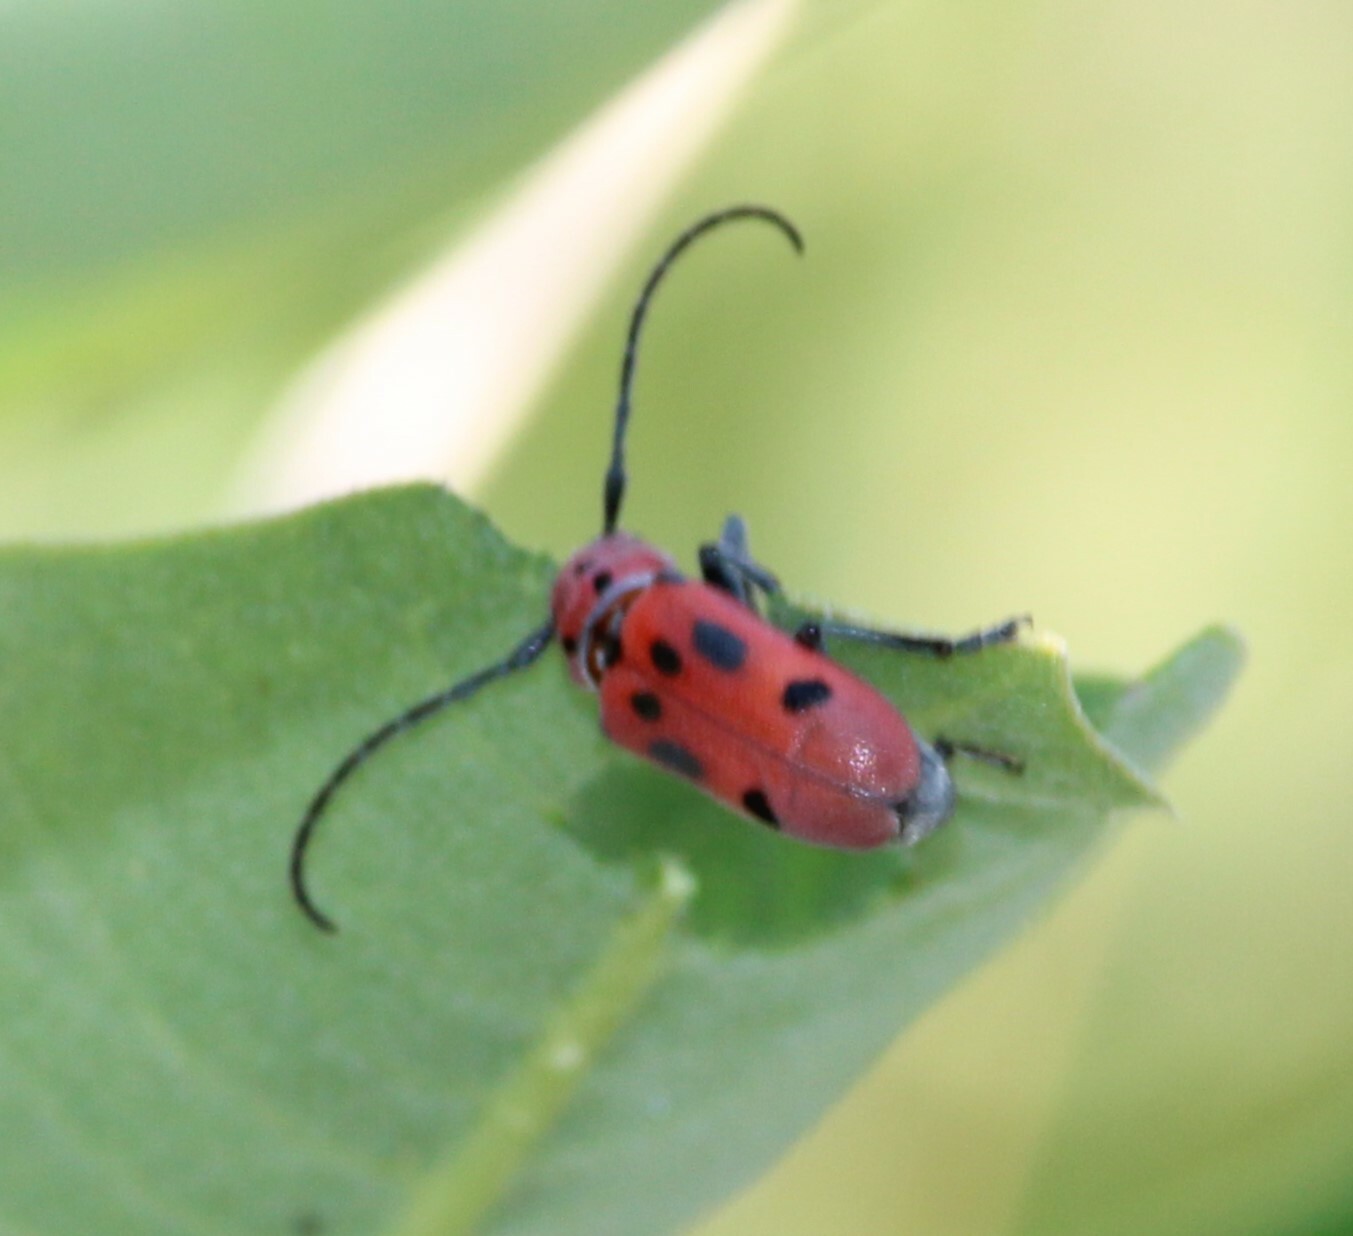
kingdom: Animalia
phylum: Arthropoda
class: Insecta
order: Coleoptera
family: Cerambycidae
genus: Tetraopes
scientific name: Tetraopes tetrophthalmus
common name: Red milkweed beetle
